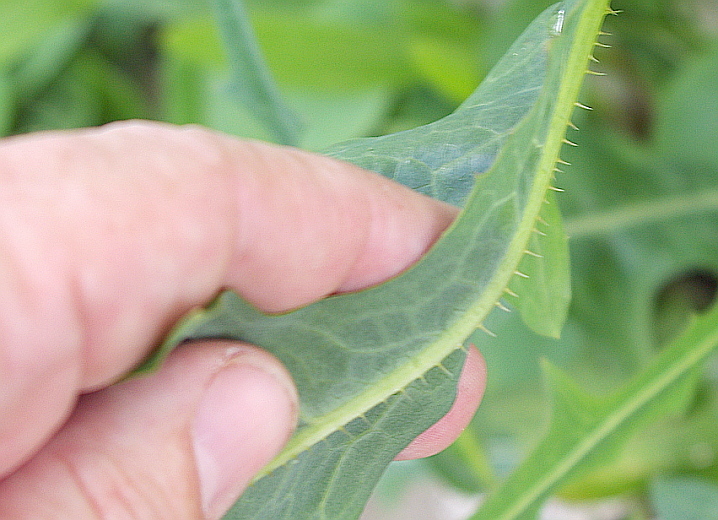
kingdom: Plantae
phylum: Tracheophyta
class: Magnoliopsida
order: Asterales
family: Asteraceae
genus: Lactuca
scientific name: Lactuca serriola
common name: Prickly lettuce
